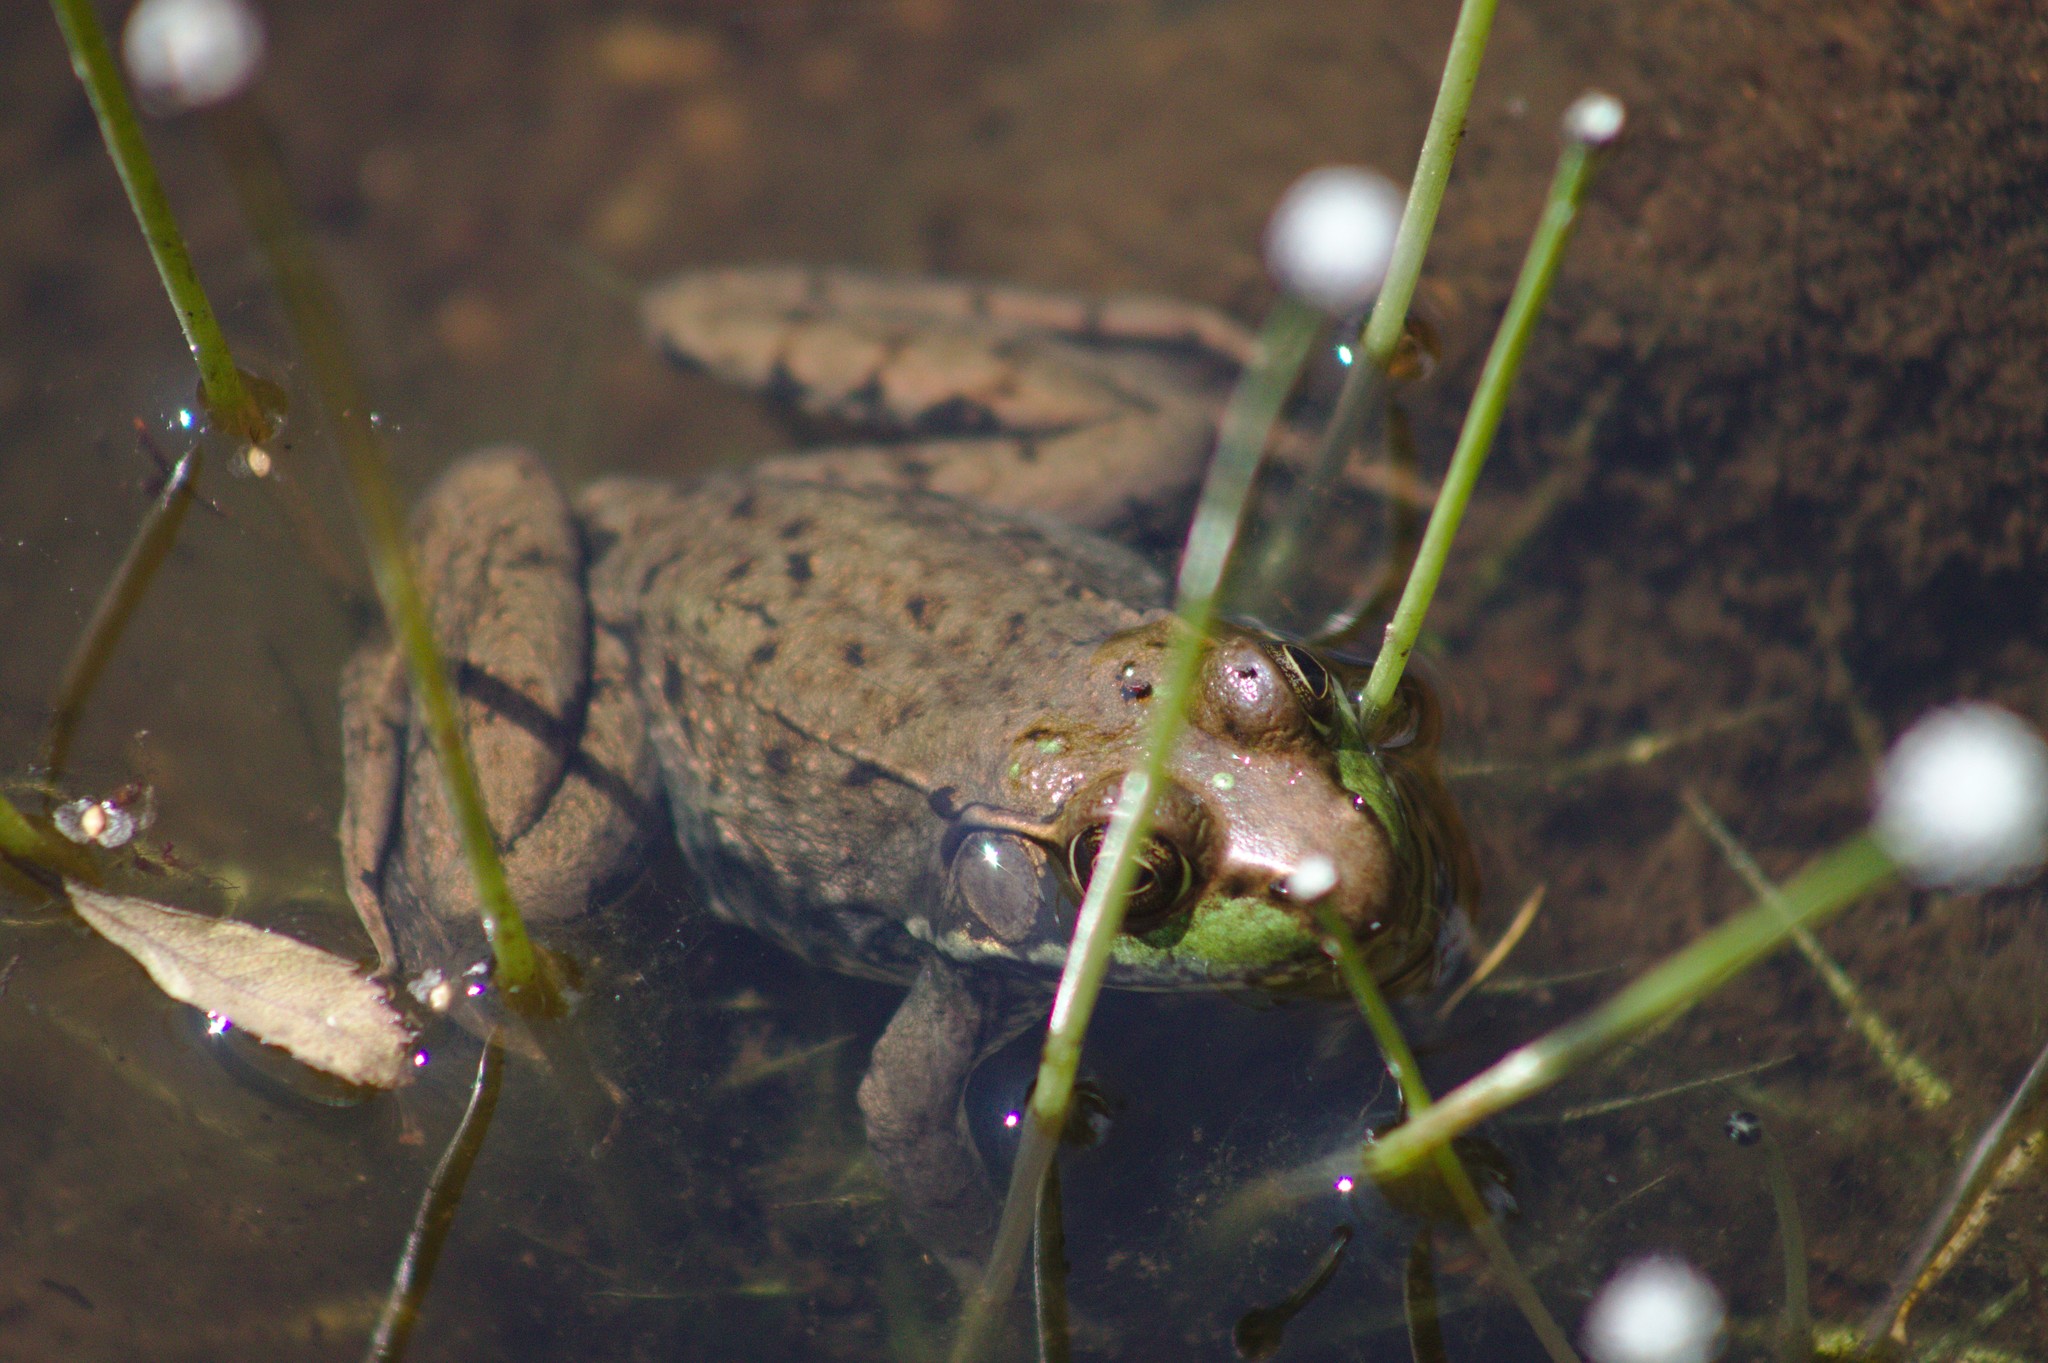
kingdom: Animalia
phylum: Chordata
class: Amphibia
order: Anura
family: Ranidae
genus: Lithobates
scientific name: Lithobates clamitans
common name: Green frog
